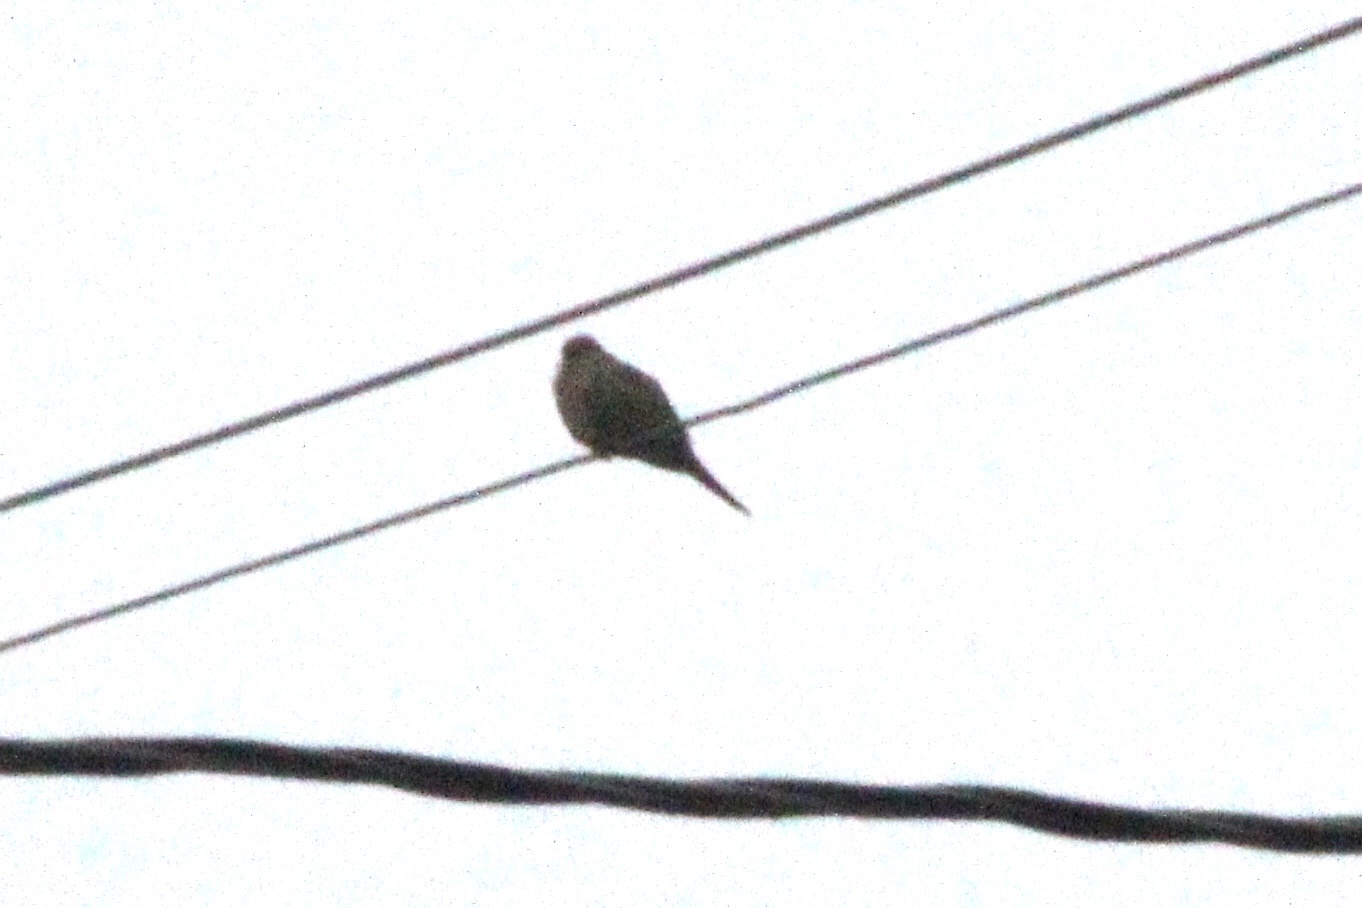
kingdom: Animalia
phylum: Chordata
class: Aves
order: Columbiformes
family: Columbidae
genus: Zenaida
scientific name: Zenaida macroura
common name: Mourning dove
